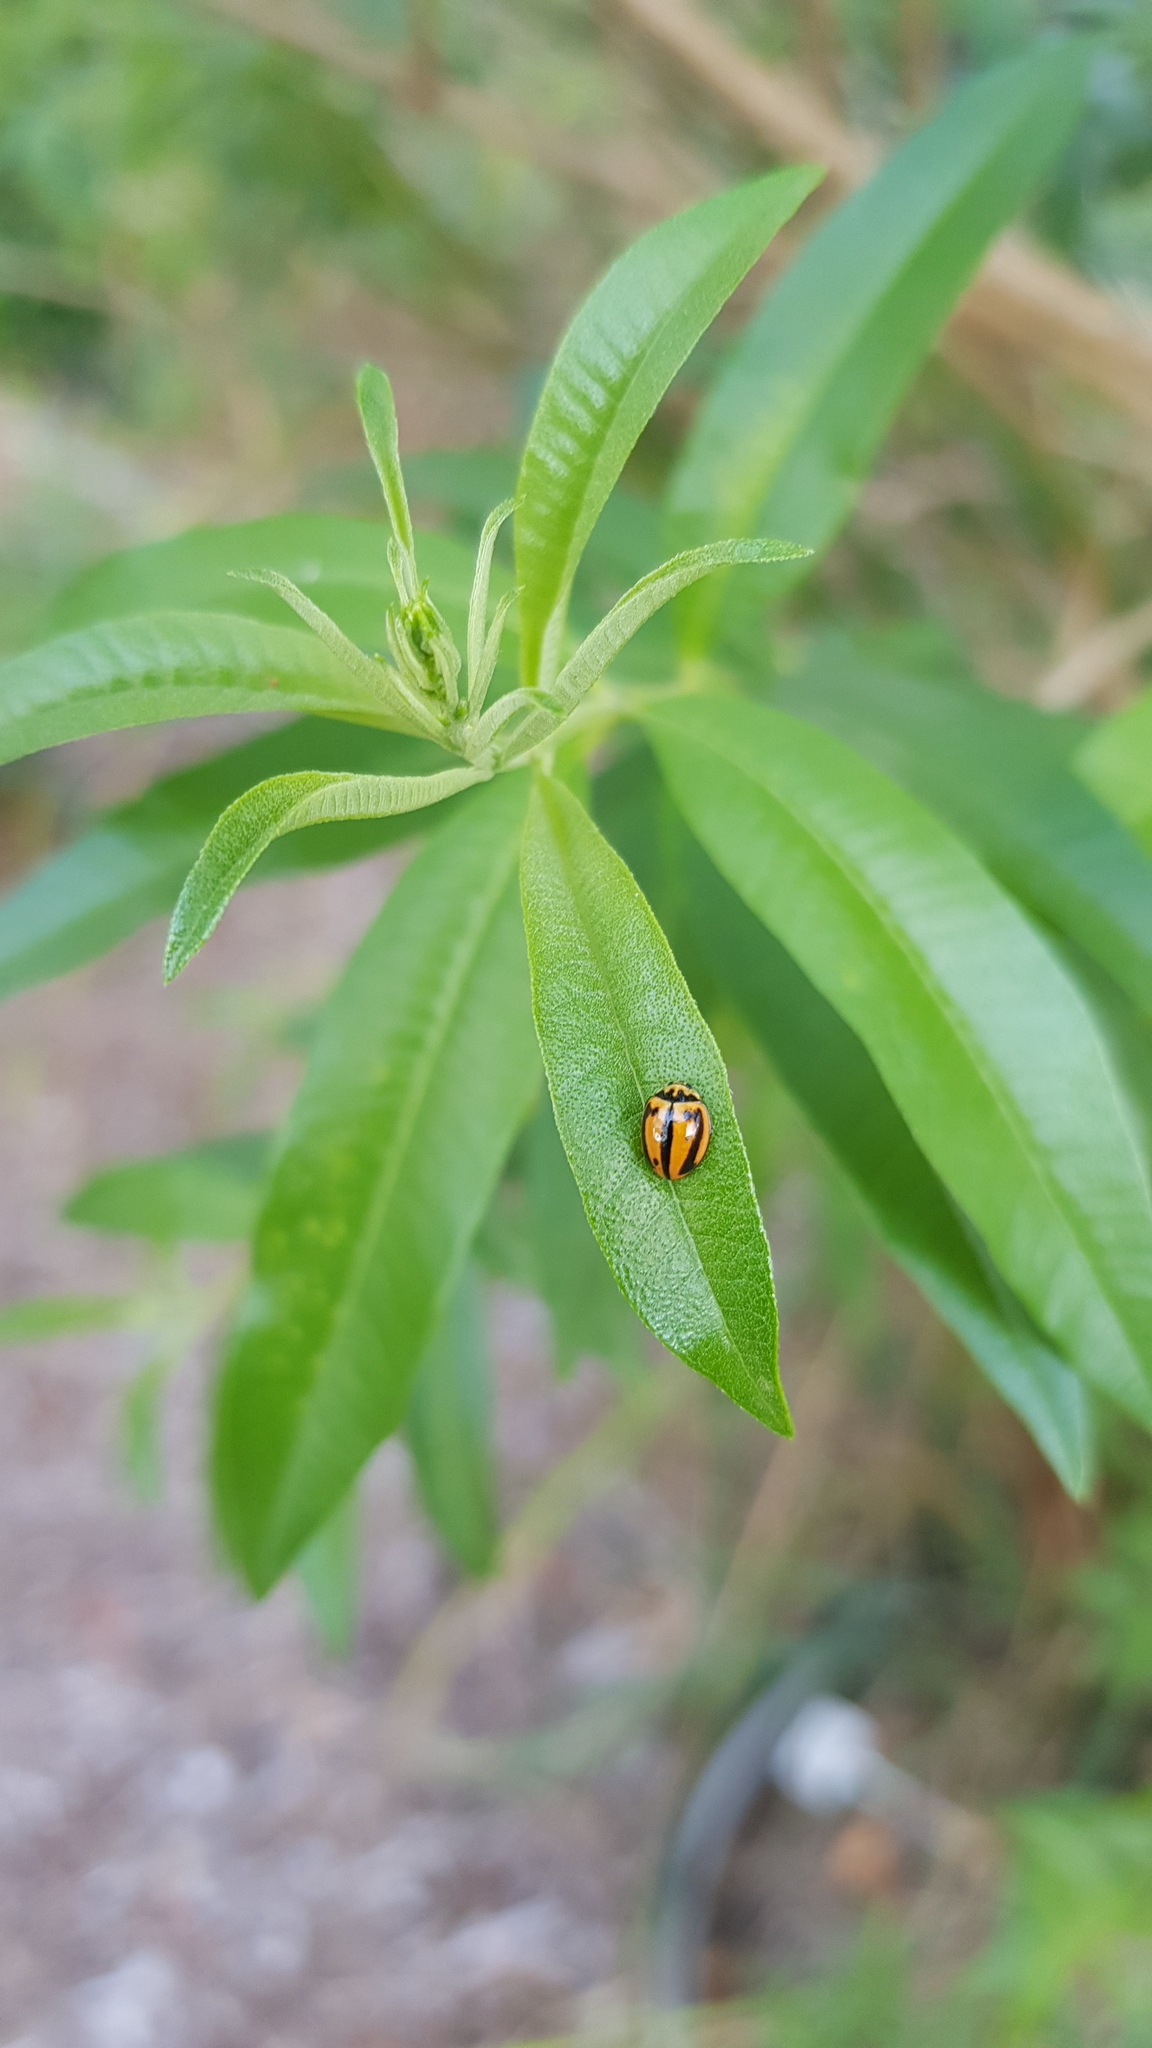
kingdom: Animalia
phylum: Arthropoda
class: Insecta
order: Coleoptera
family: Coccinellidae
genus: Micraspis
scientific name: Micraspis frenata
